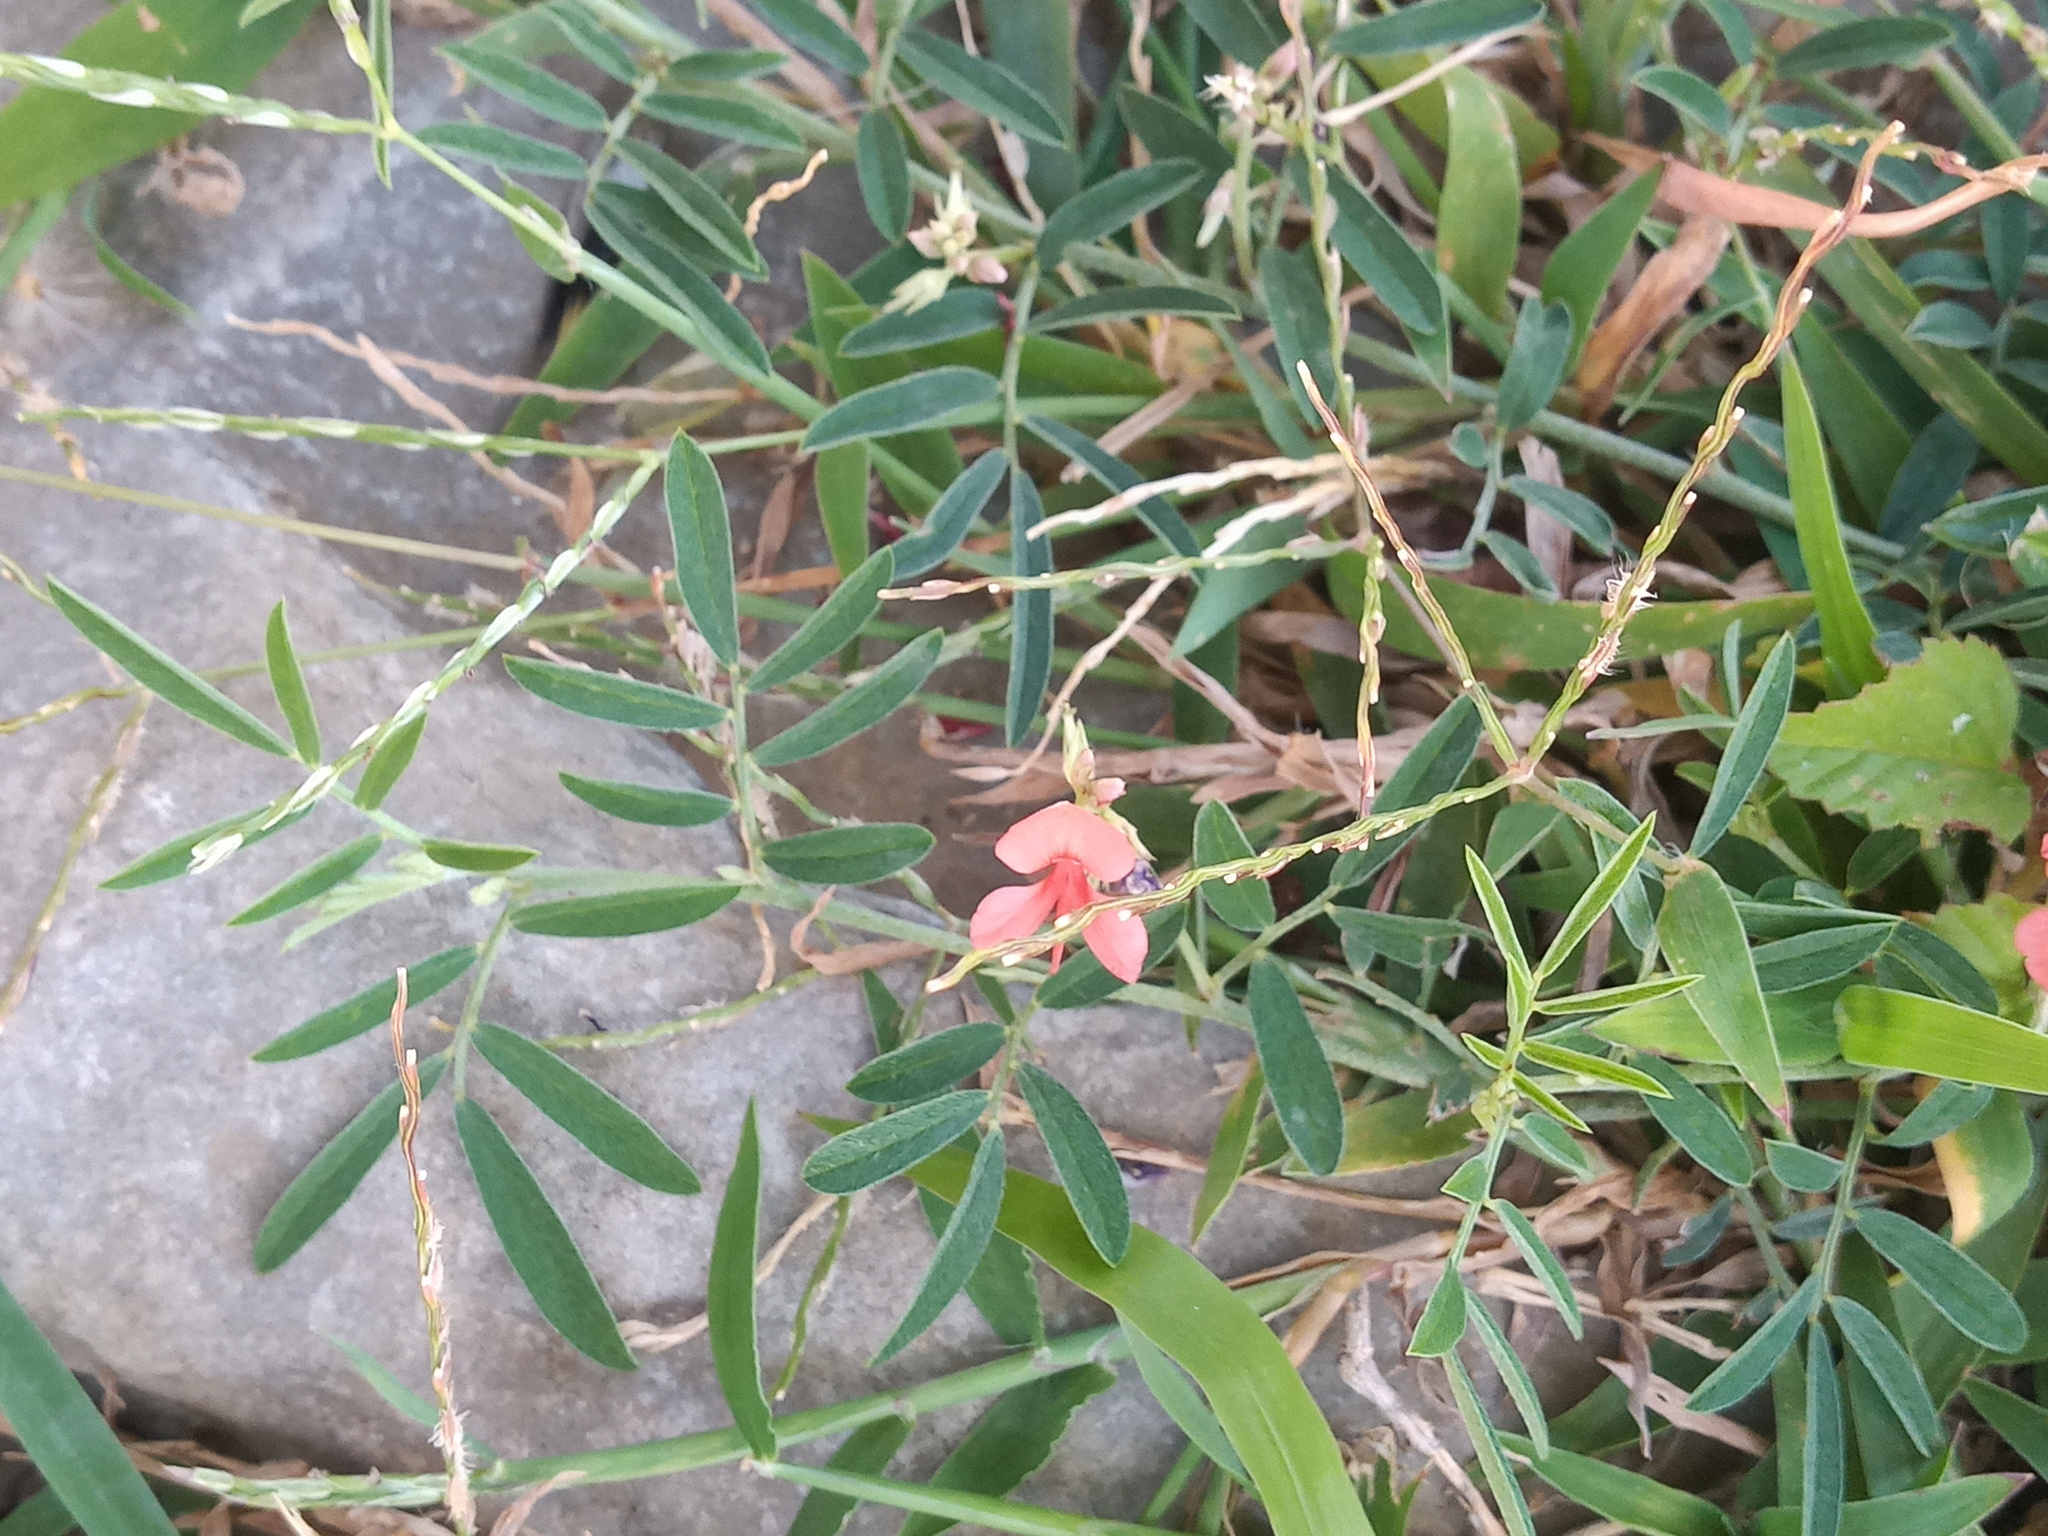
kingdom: Plantae
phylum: Tracheophyta
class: Magnoliopsida
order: Fabales
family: Fabaceae
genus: Indigofera
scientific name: Indigofera miniata
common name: Coast indigo
